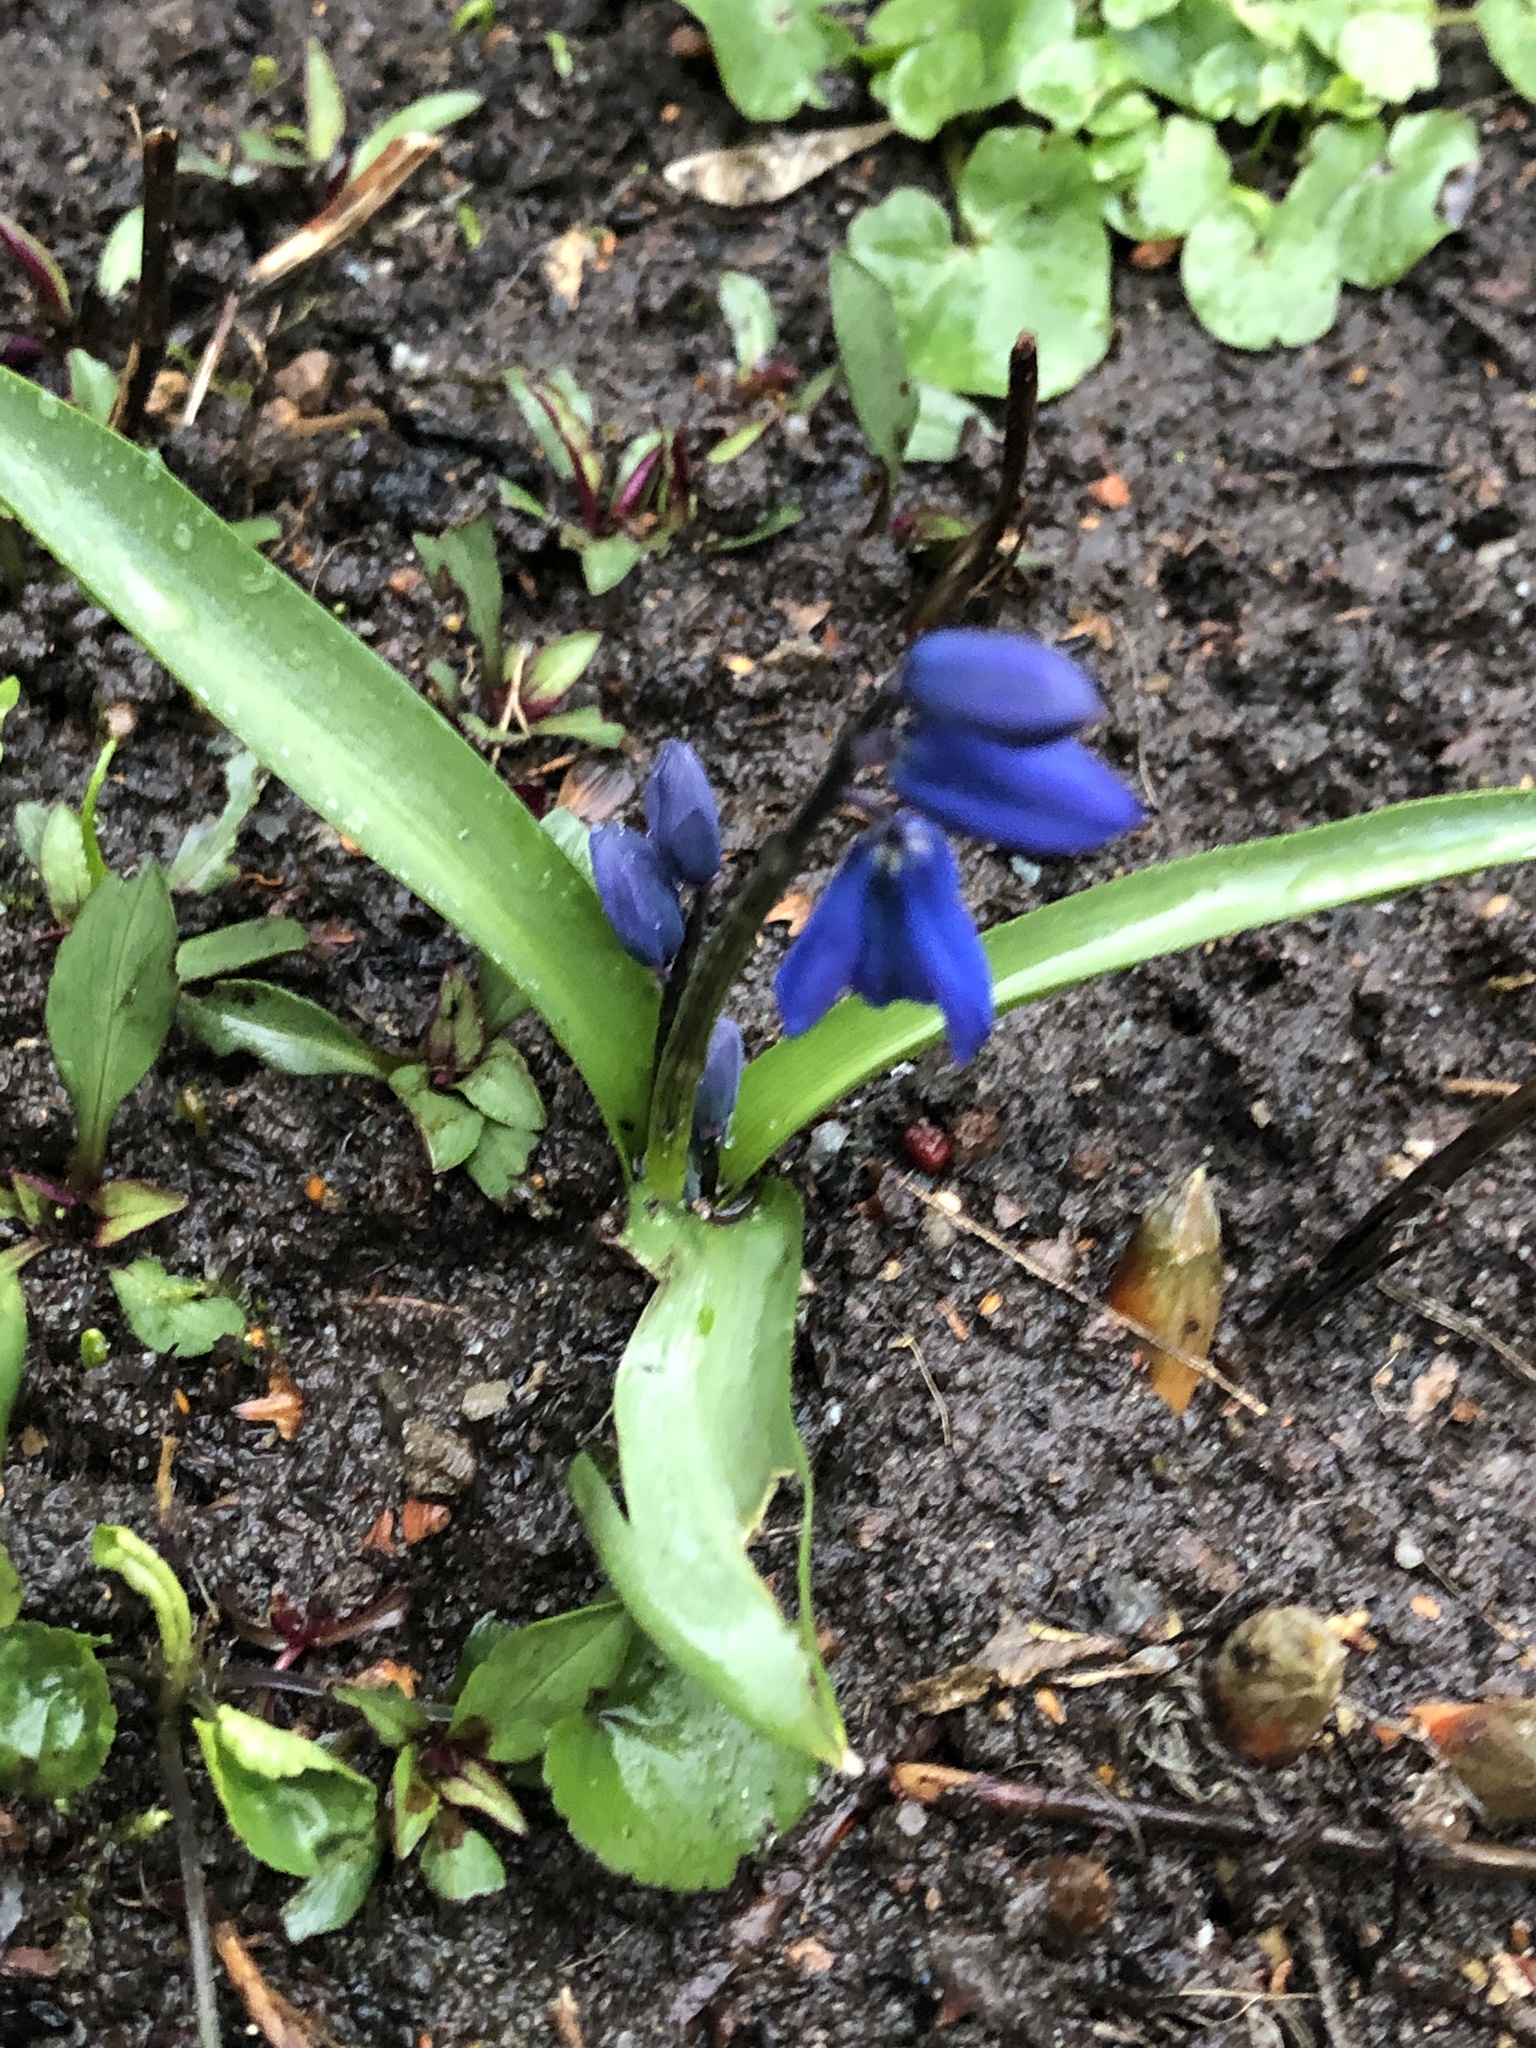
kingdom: Plantae
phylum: Tracheophyta
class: Liliopsida
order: Asparagales
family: Asparagaceae
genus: Scilla
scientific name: Scilla siberica
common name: Siberian squill
